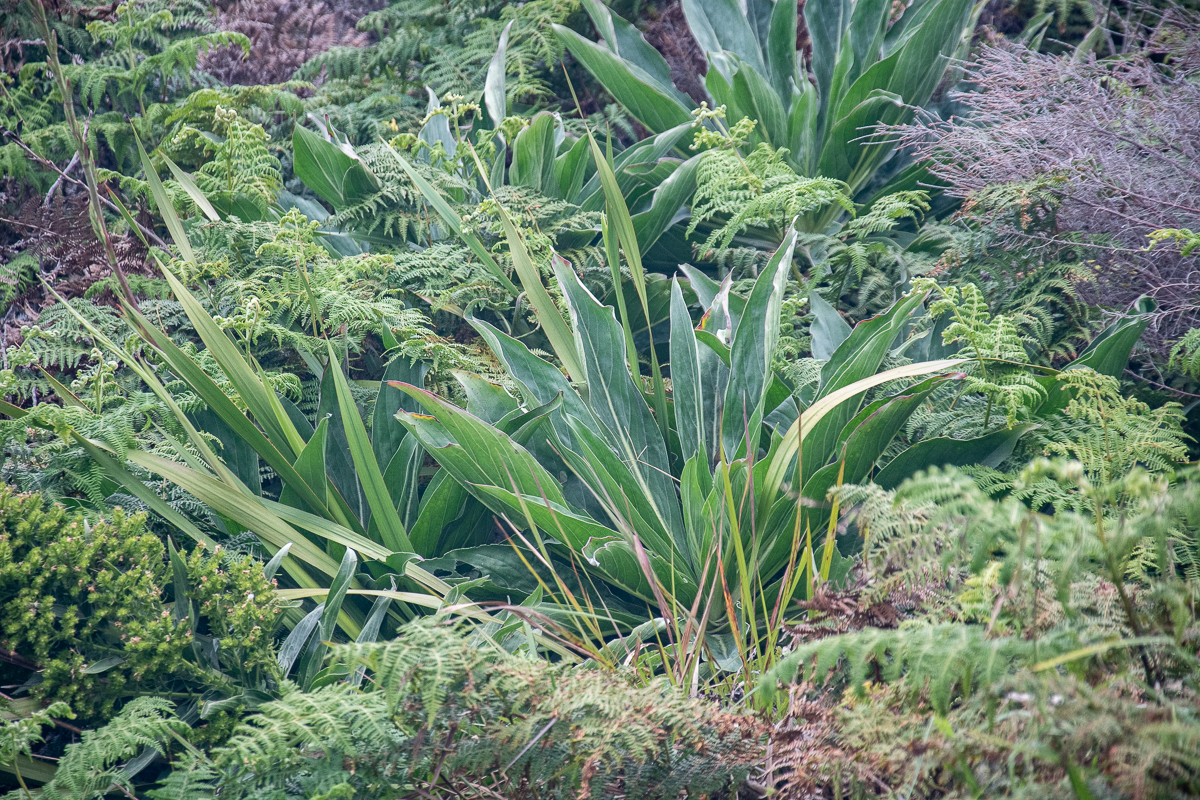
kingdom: Plantae
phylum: Tracheophyta
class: Magnoliopsida
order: Boraginales
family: Boraginaceae
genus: Echium
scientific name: Echium simplex
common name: Pride-of-tenerife
